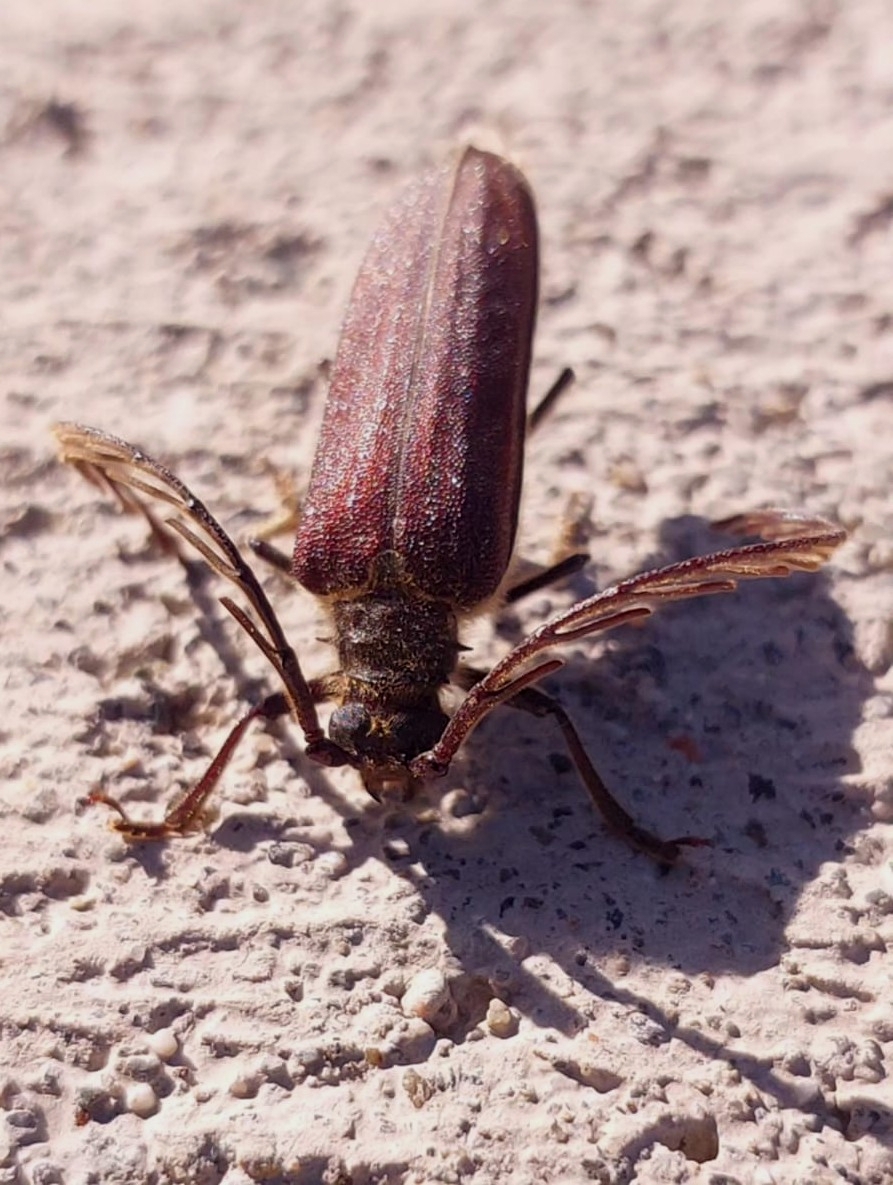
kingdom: Animalia
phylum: Arthropoda
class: Insecta
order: Coleoptera
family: Cerambycidae
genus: Microplophorus
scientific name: Microplophorus magellanicus
